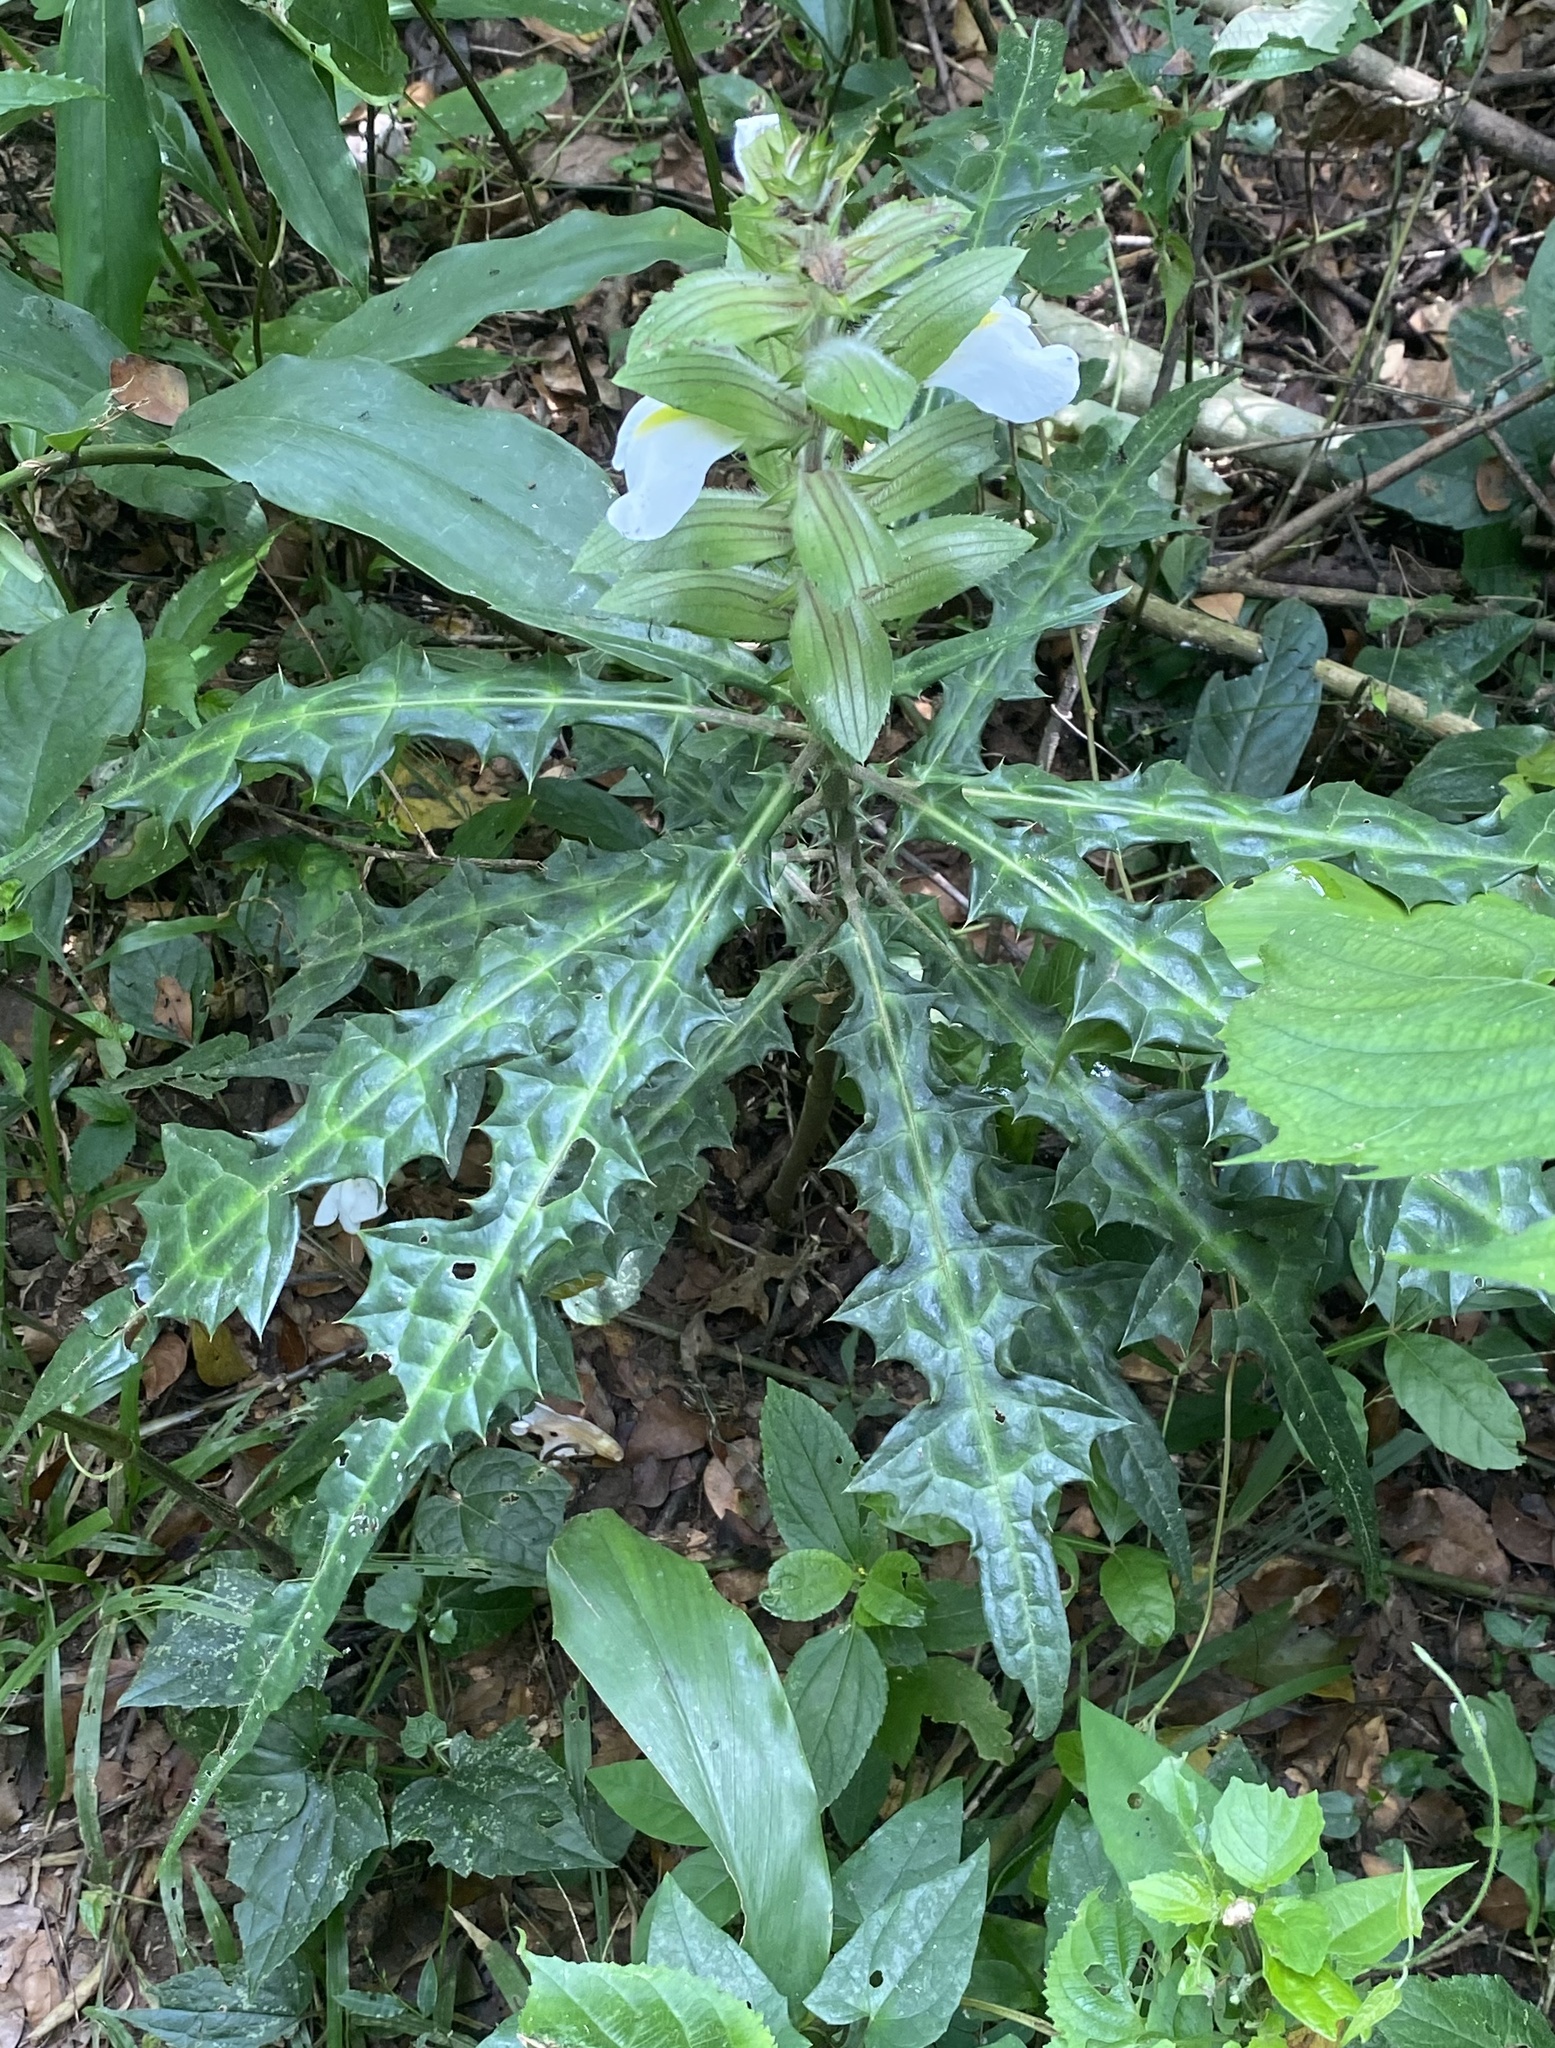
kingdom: Plantae
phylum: Tracheophyta
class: Magnoliopsida
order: Lamiales
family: Acanthaceae
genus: Acanthus
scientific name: Acanthus guineensis
